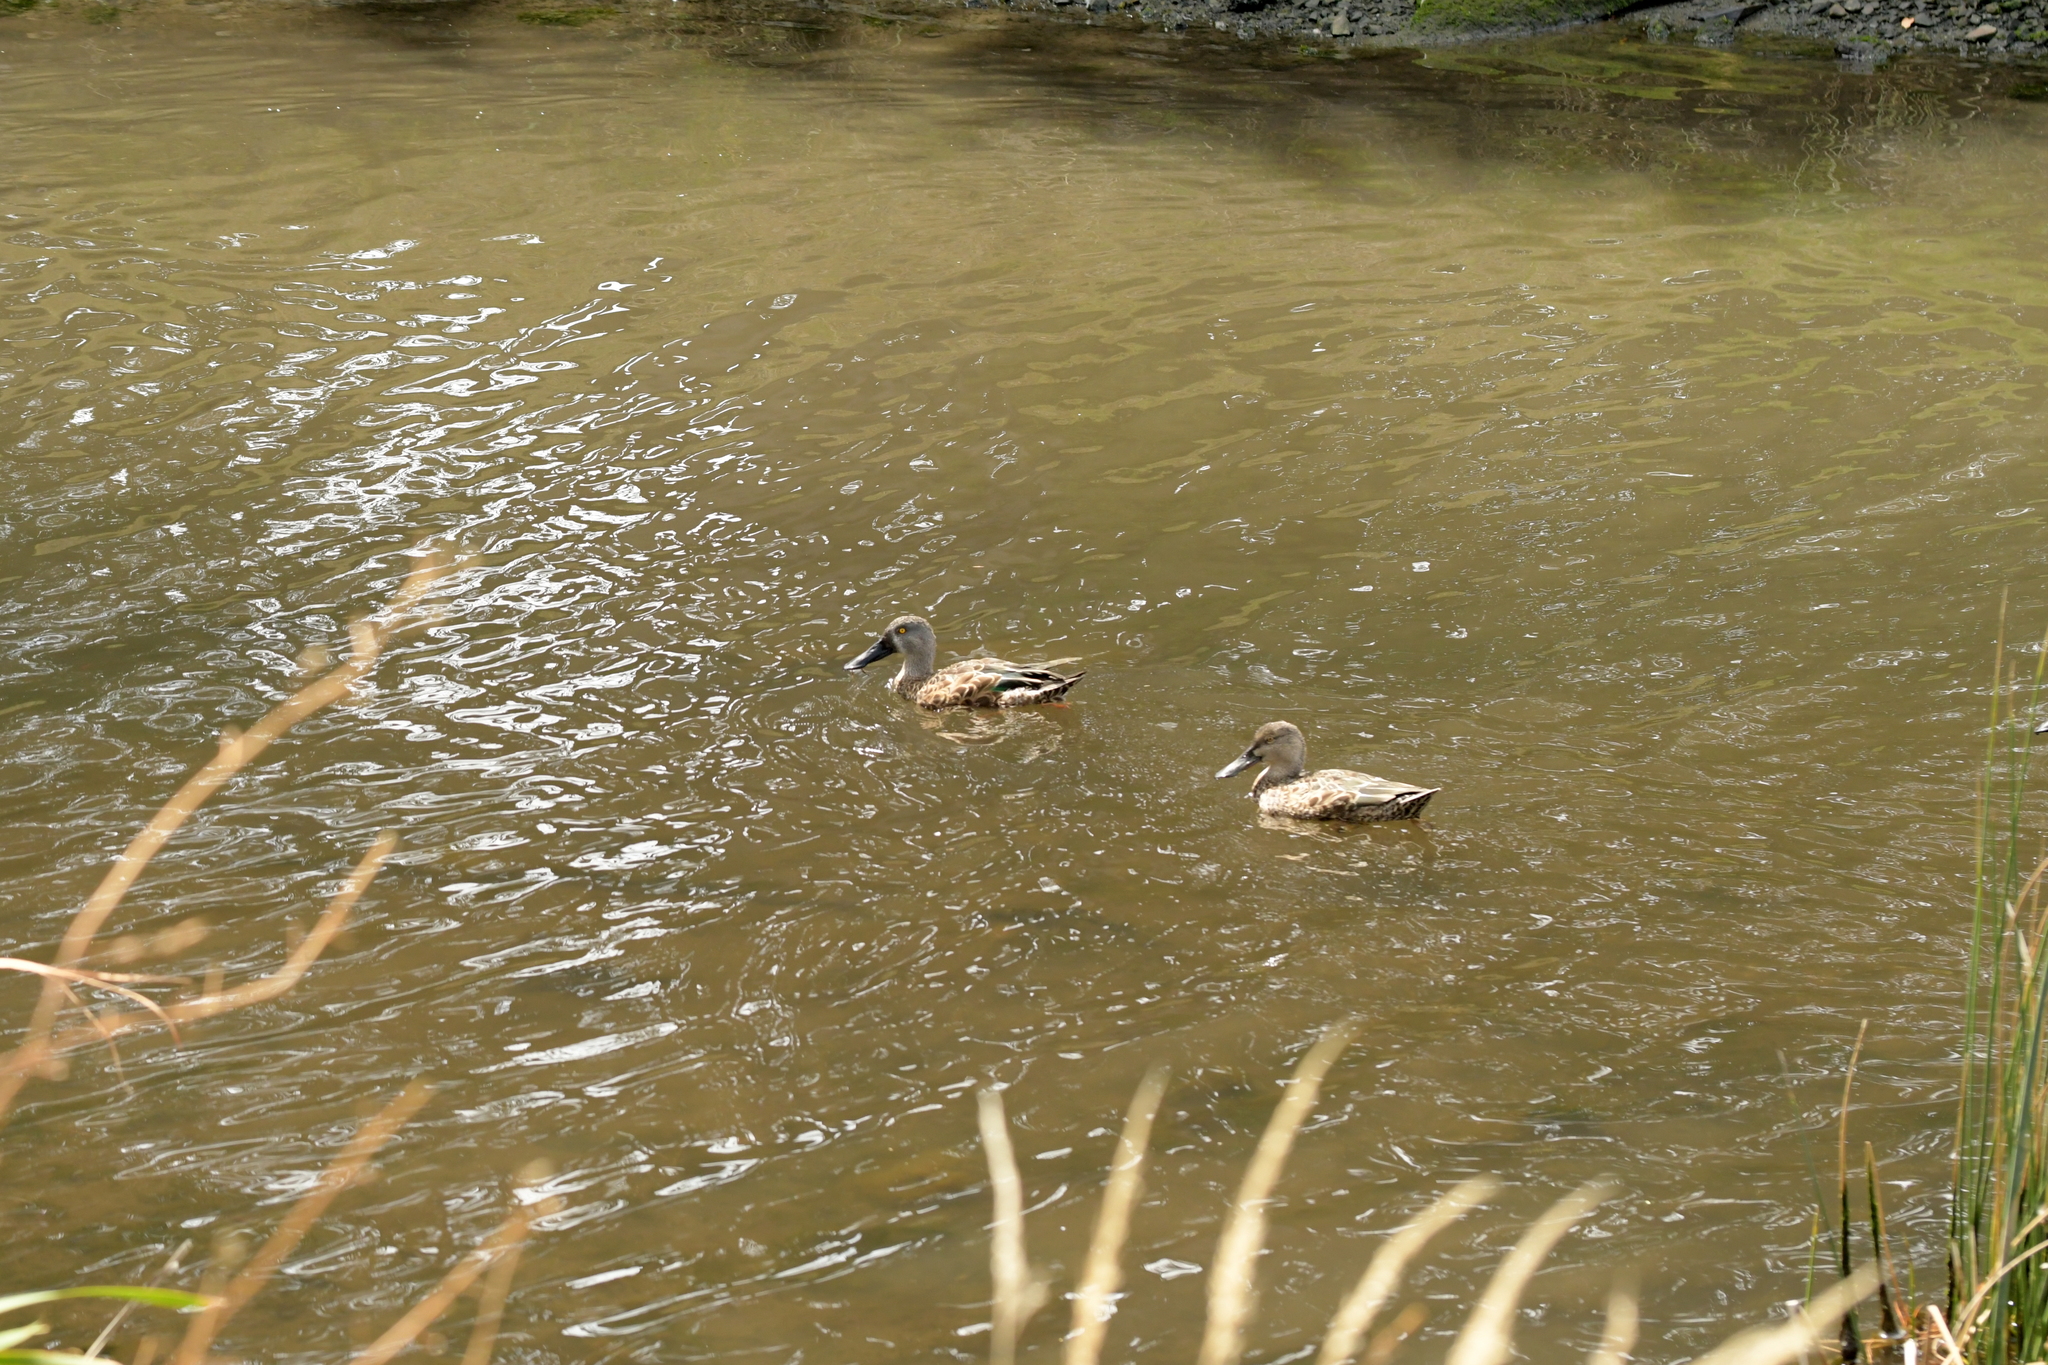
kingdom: Animalia
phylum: Chordata
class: Aves
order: Anseriformes
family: Anatidae
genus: Spatula
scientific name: Spatula rhynchotis
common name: Australian shoveler
